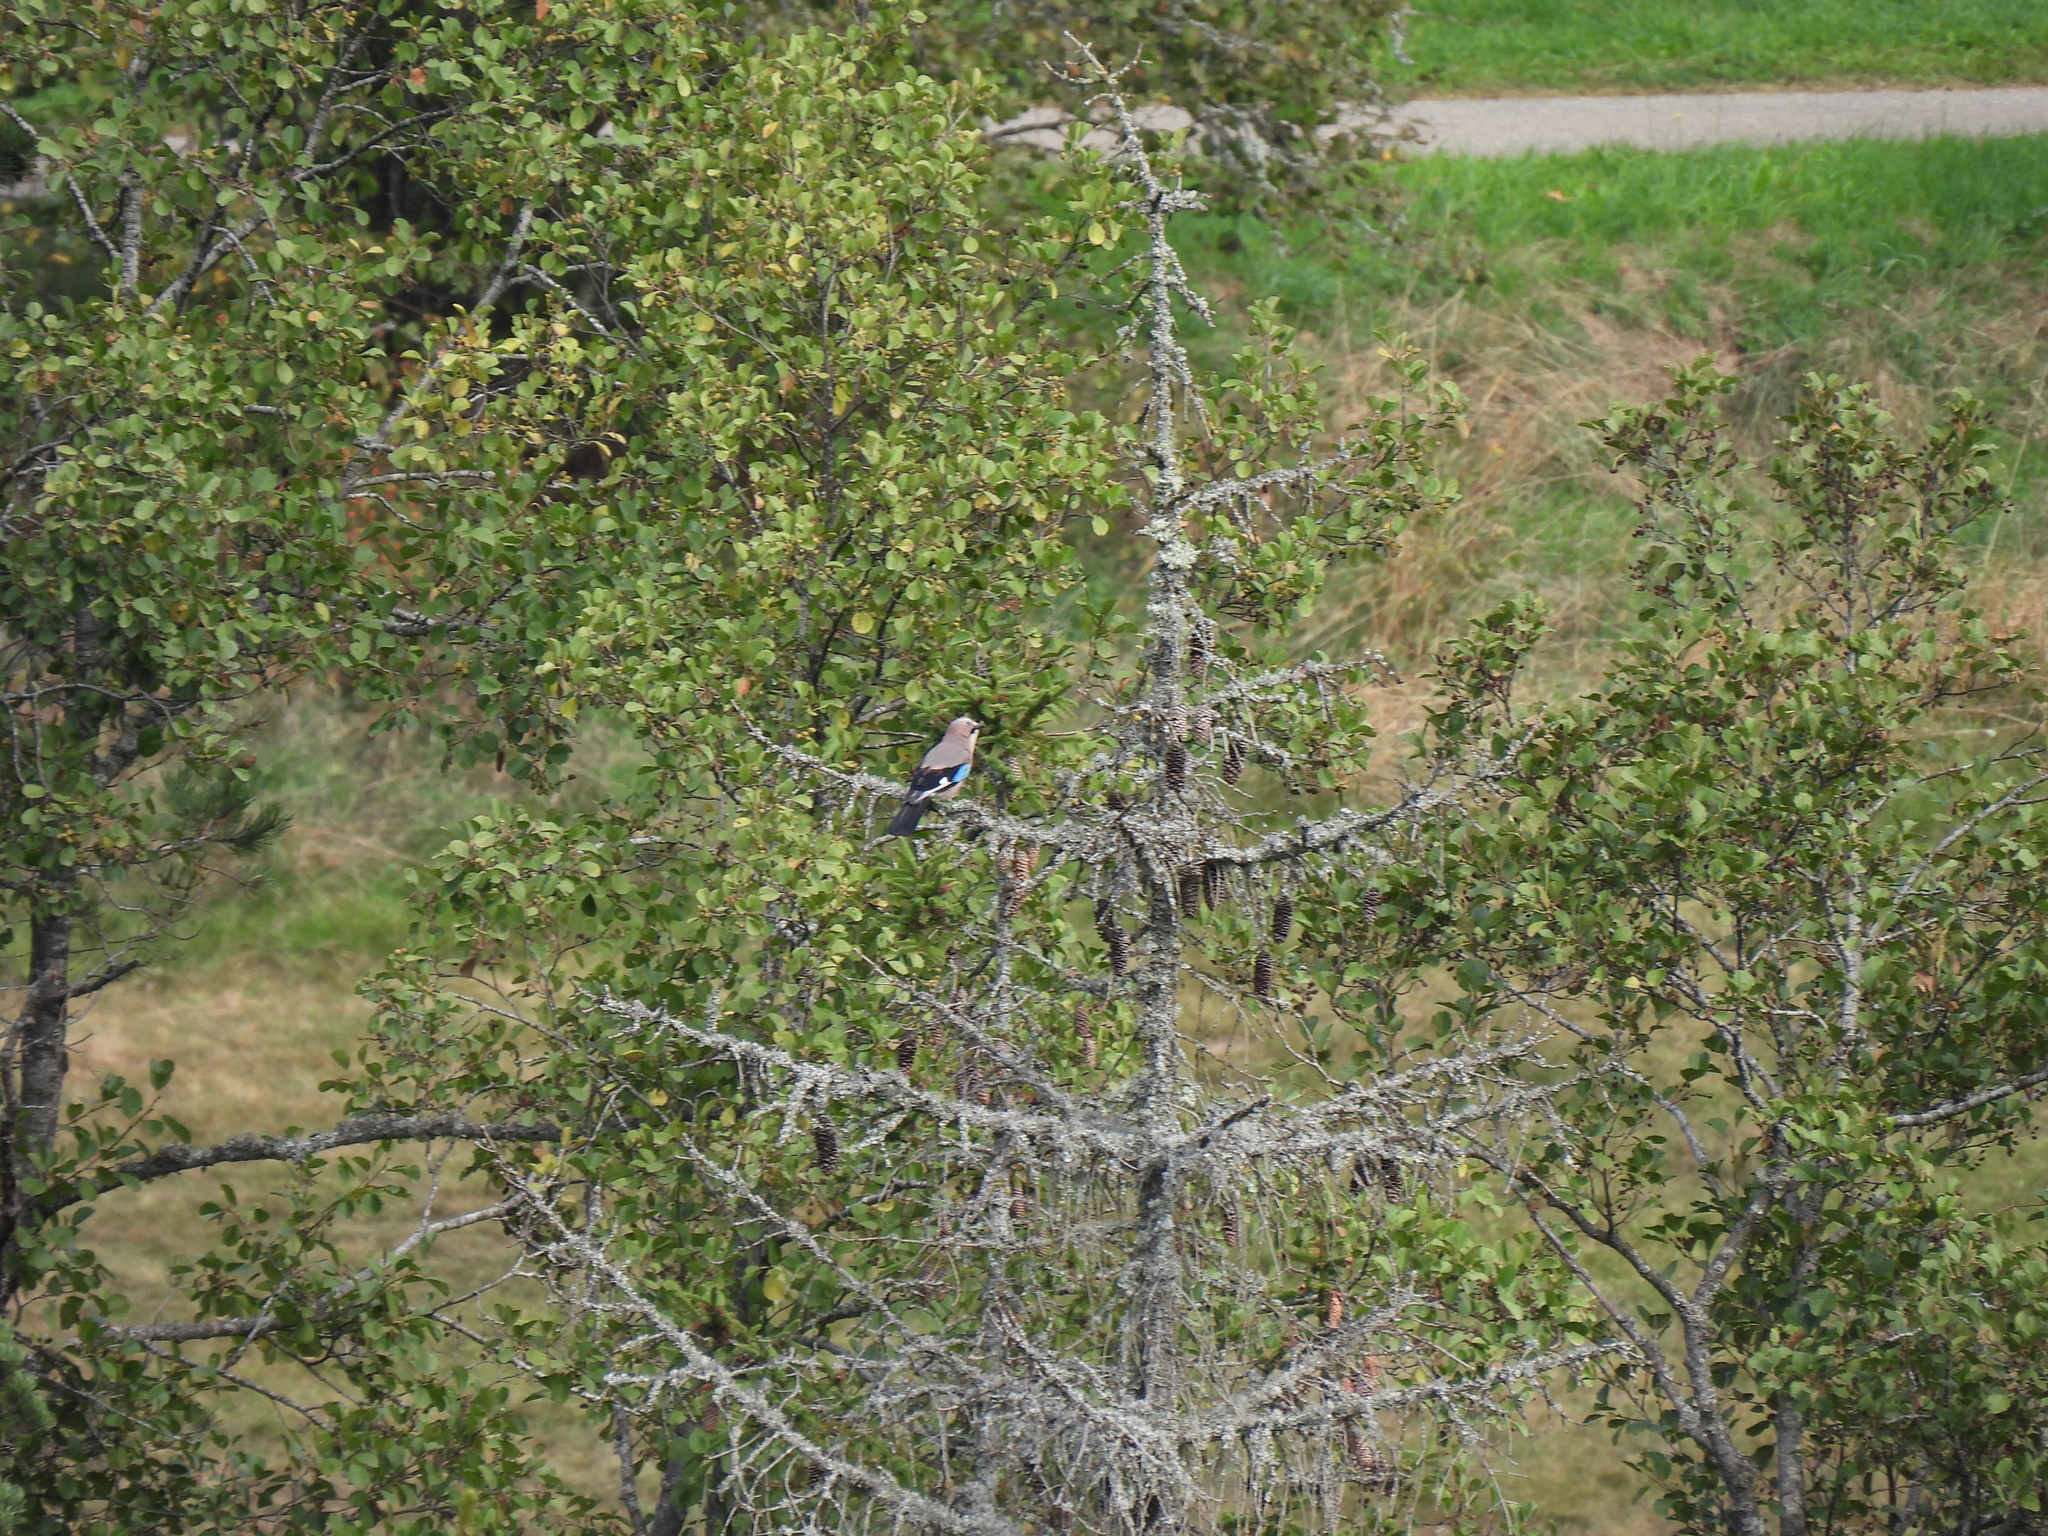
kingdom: Animalia
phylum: Chordata
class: Aves
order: Passeriformes
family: Corvidae
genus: Garrulus
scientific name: Garrulus glandarius
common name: Eurasian jay
